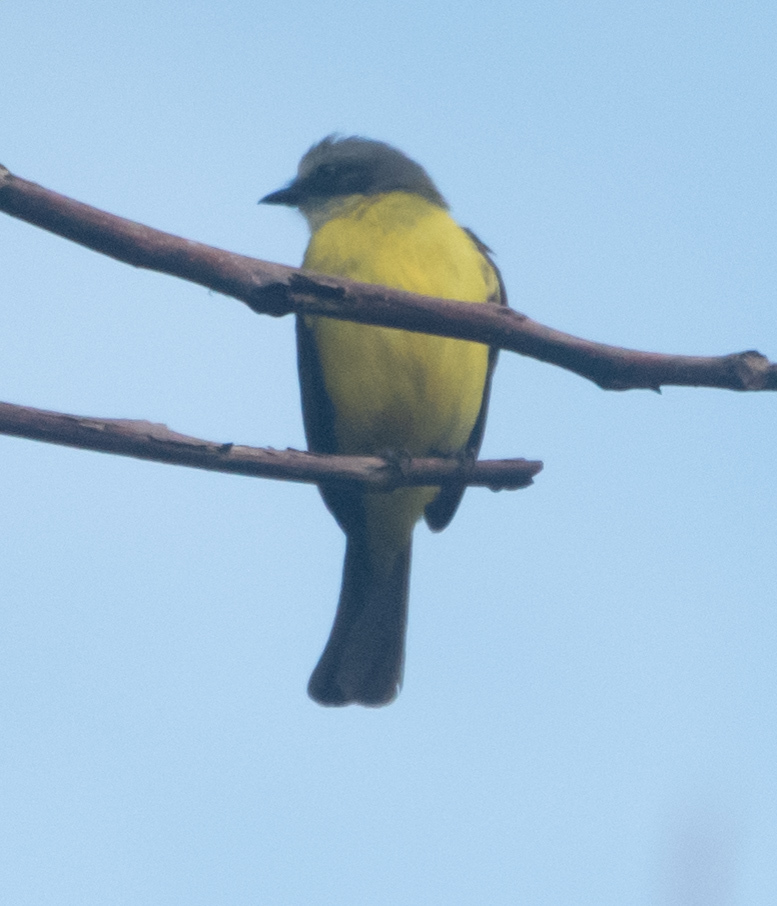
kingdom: Animalia
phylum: Chordata
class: Aves
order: Passeriformes
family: Tyrannidae
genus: Myiozetetes
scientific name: Myiozetetes granadensis
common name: Gray-capped flycatcher
